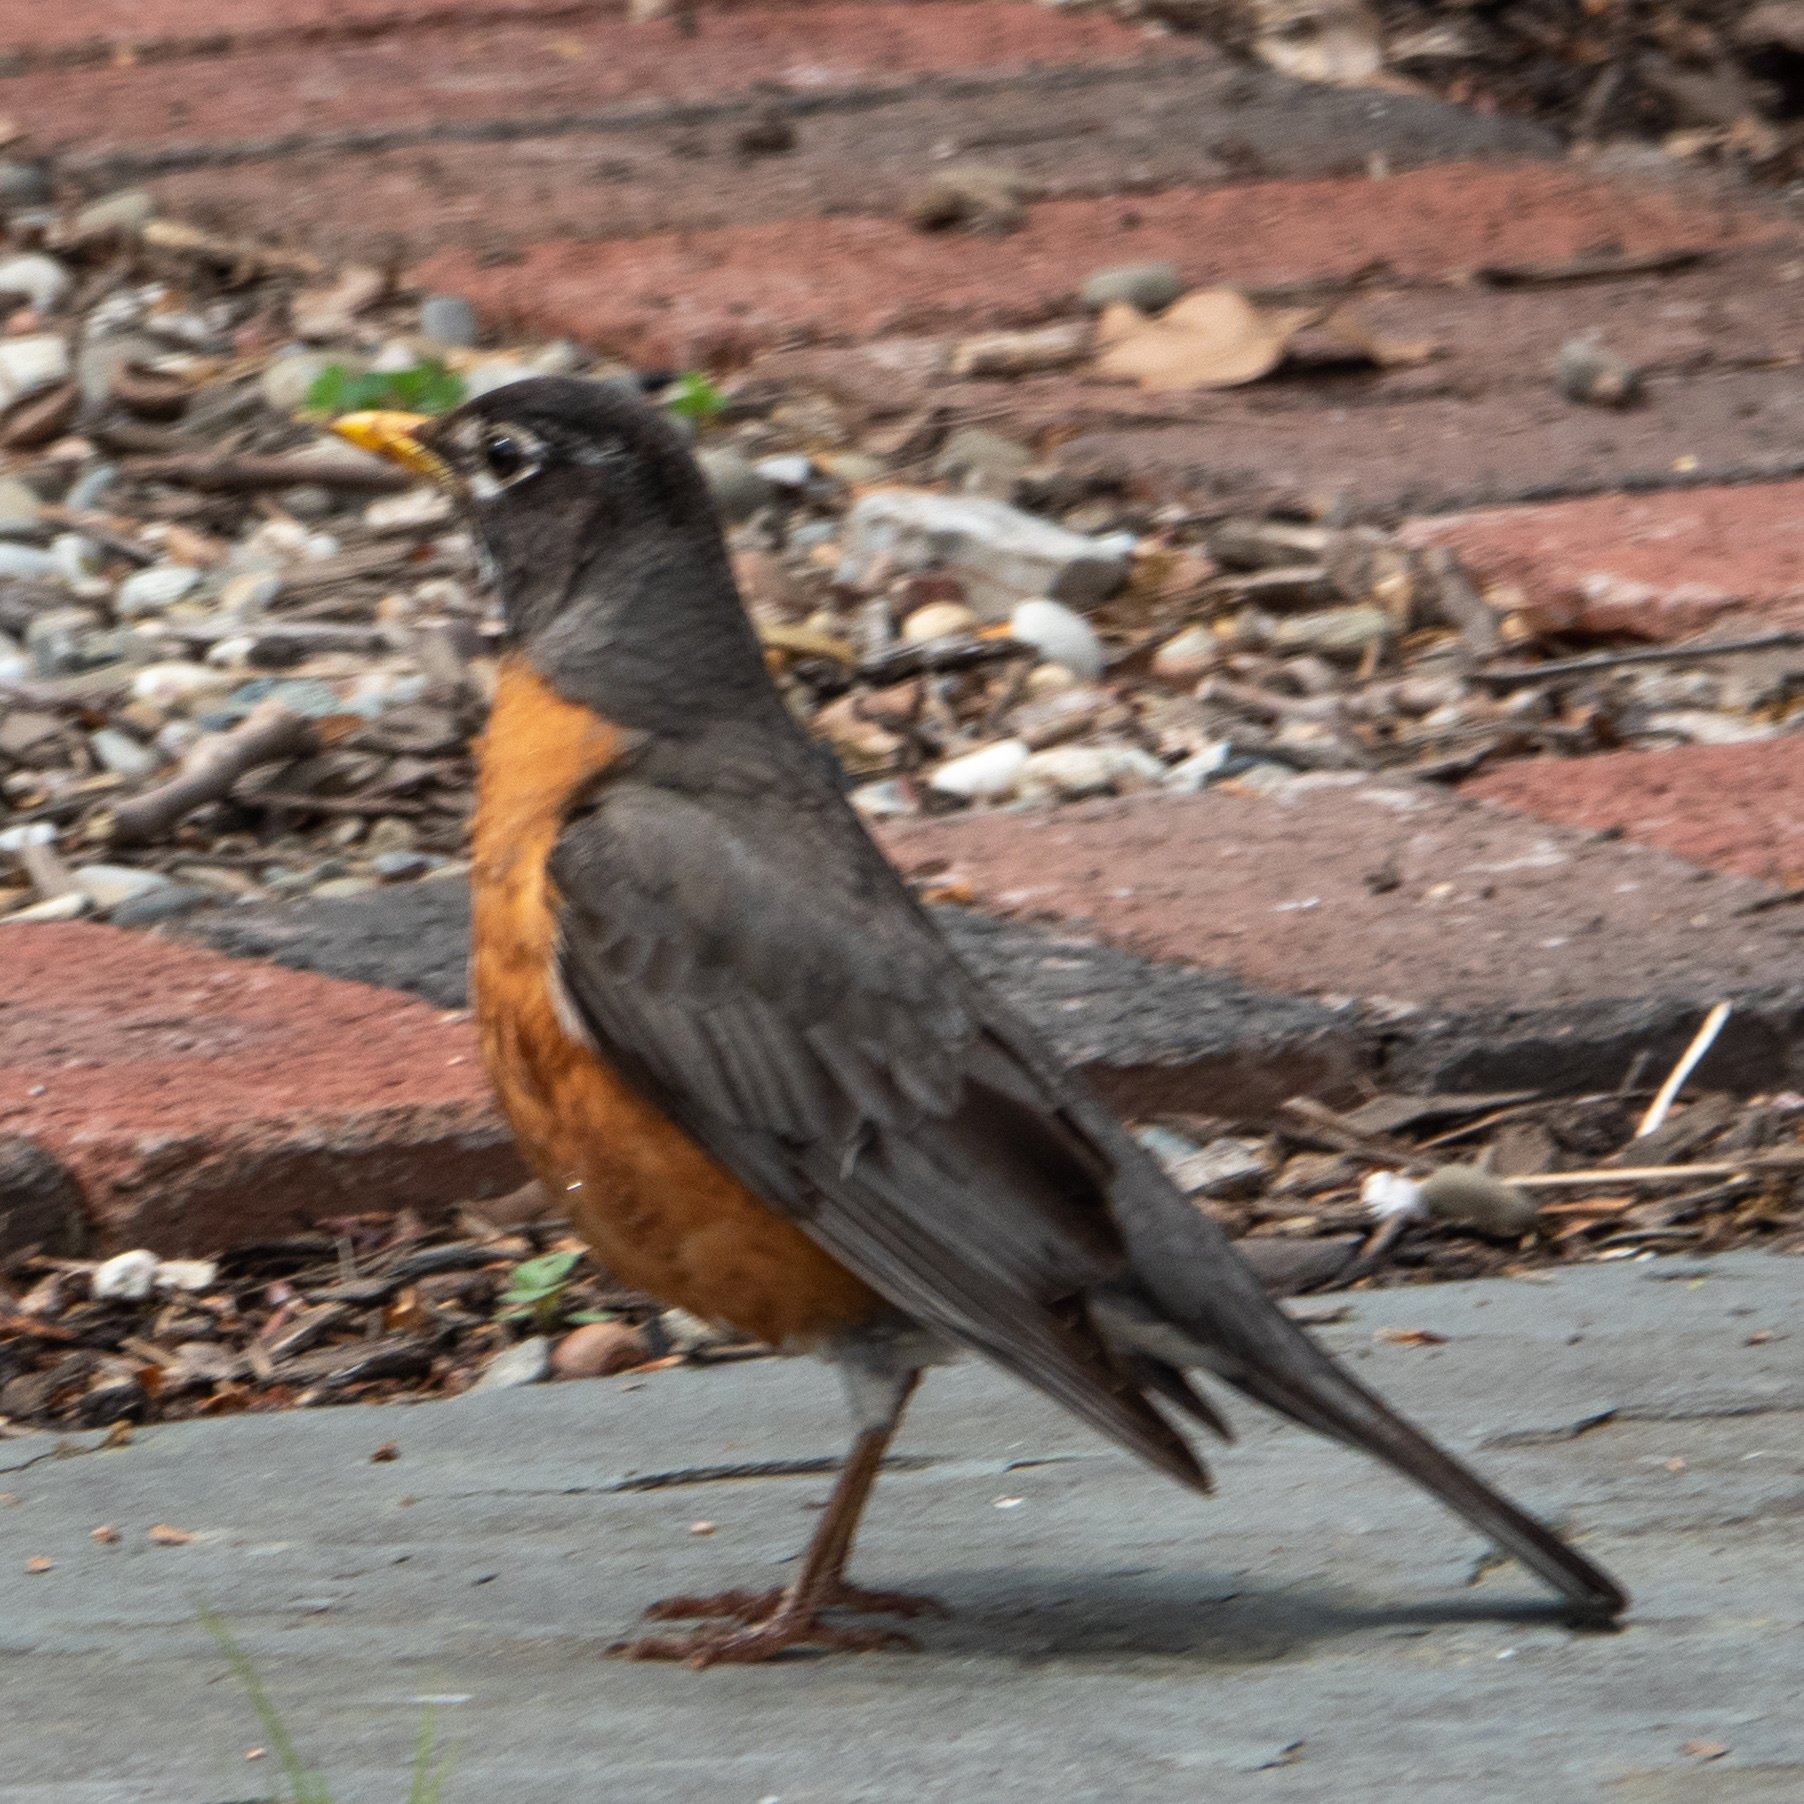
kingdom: Animalia
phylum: Chordata
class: Aves
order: Passeriformes
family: Turdidae
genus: Turdus
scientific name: Turdus migratorius
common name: American robin
